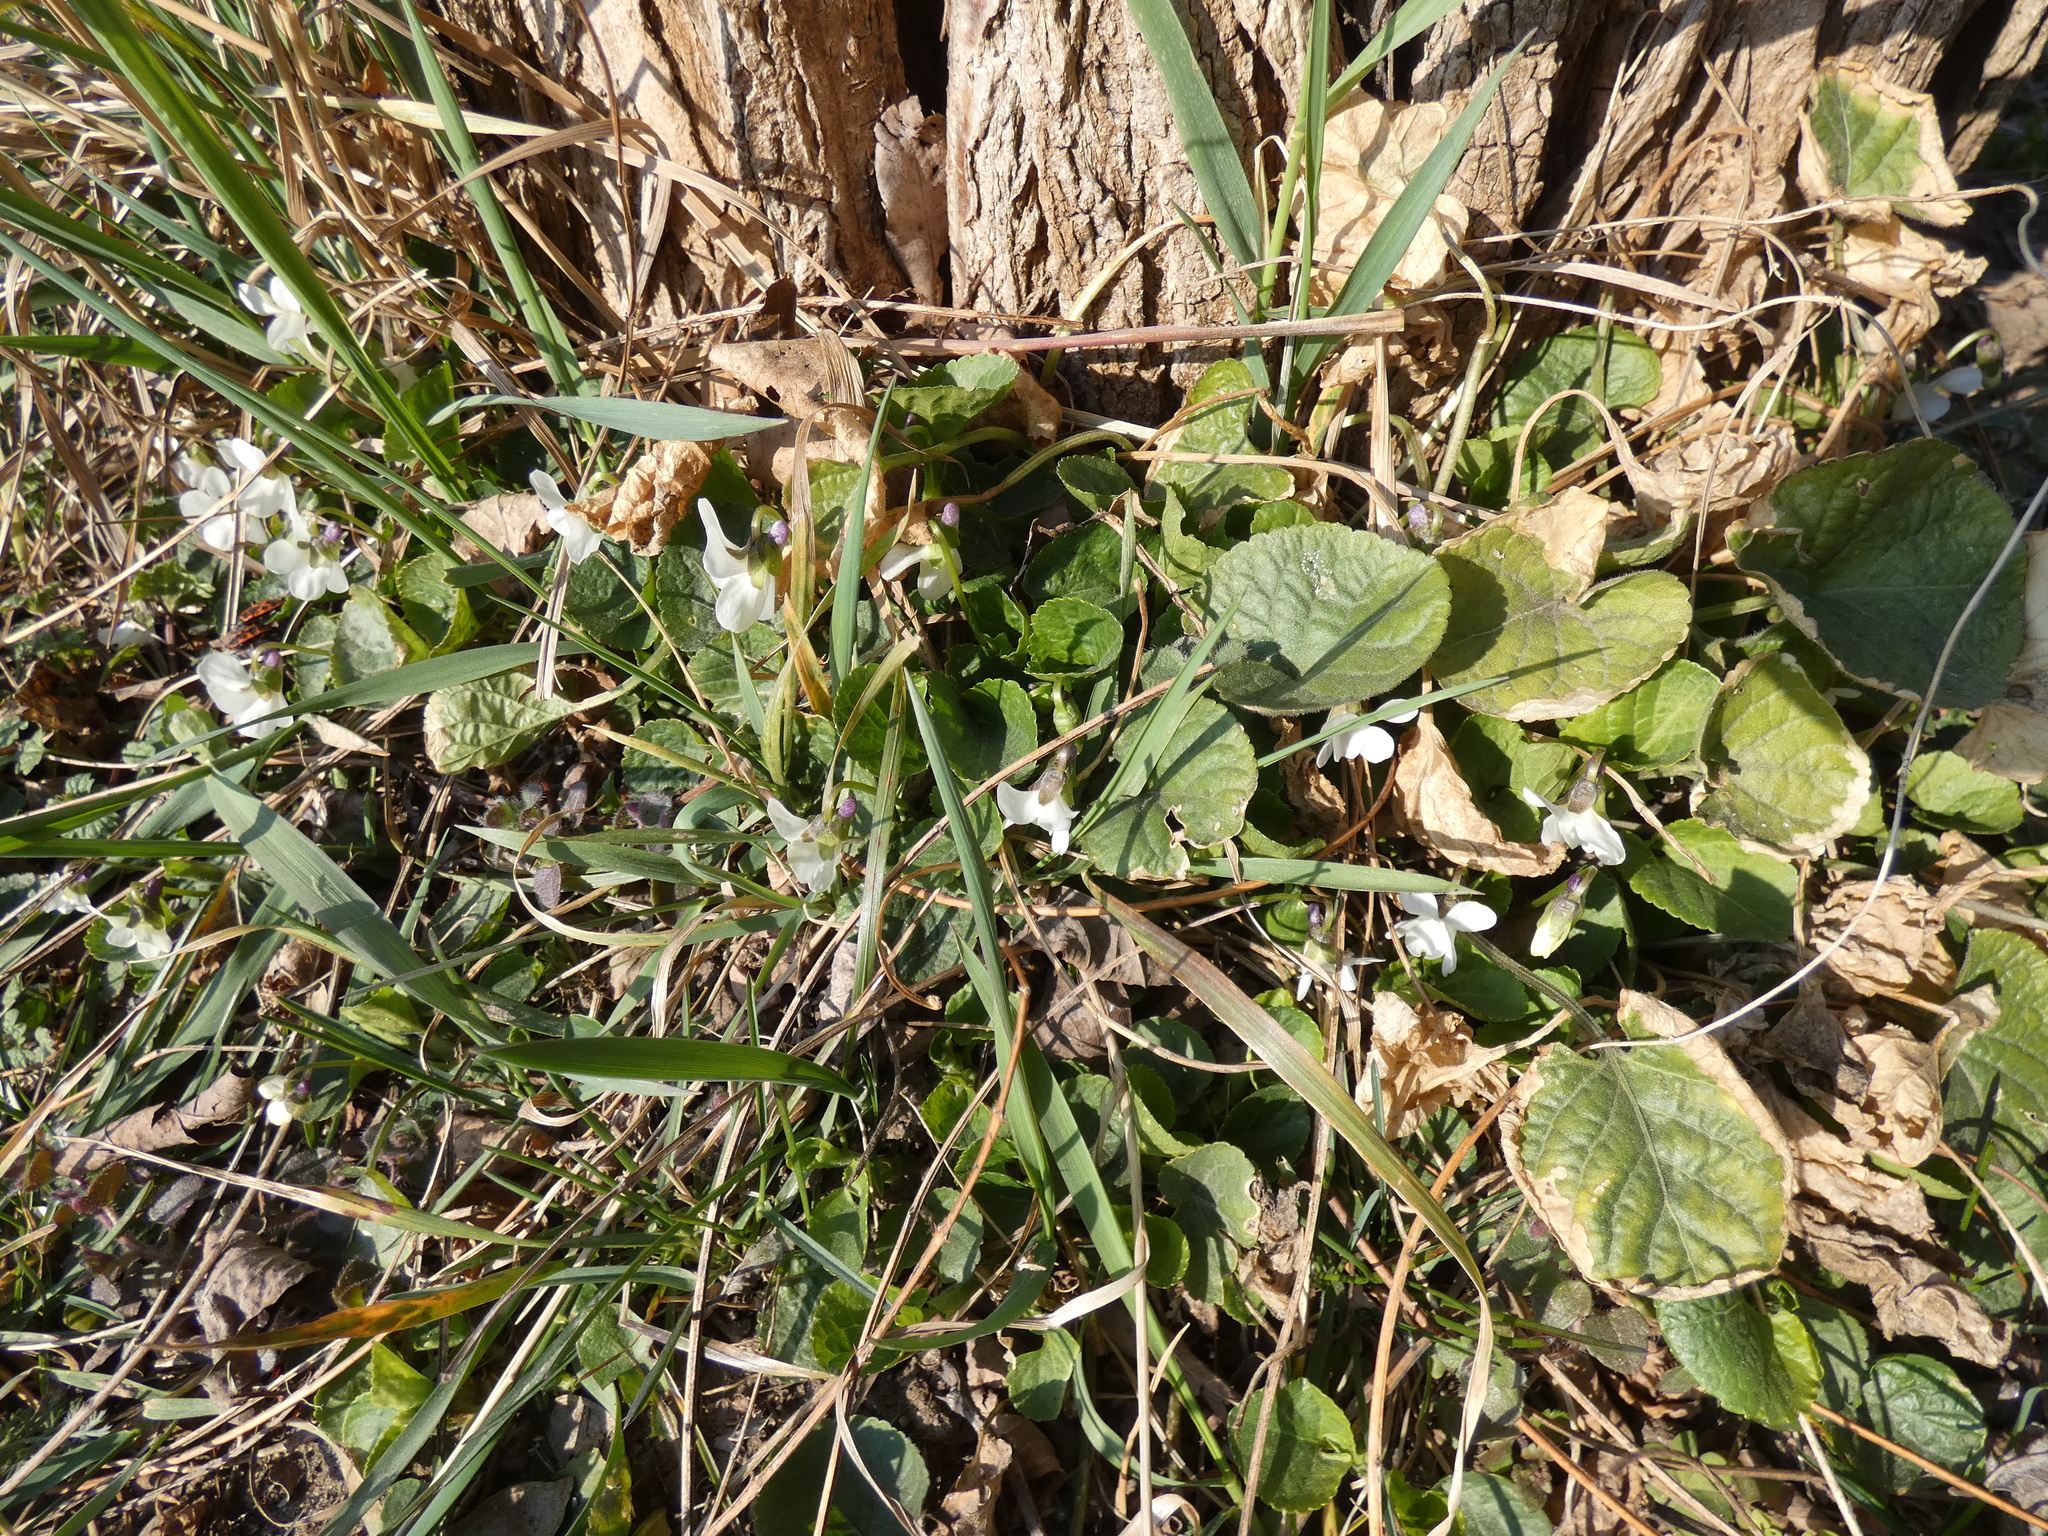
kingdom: Plantae
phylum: Tracheophyta
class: Magnoliopsida
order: Malpighiales
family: Violaceae
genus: Viola
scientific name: Viola alba
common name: White violet
